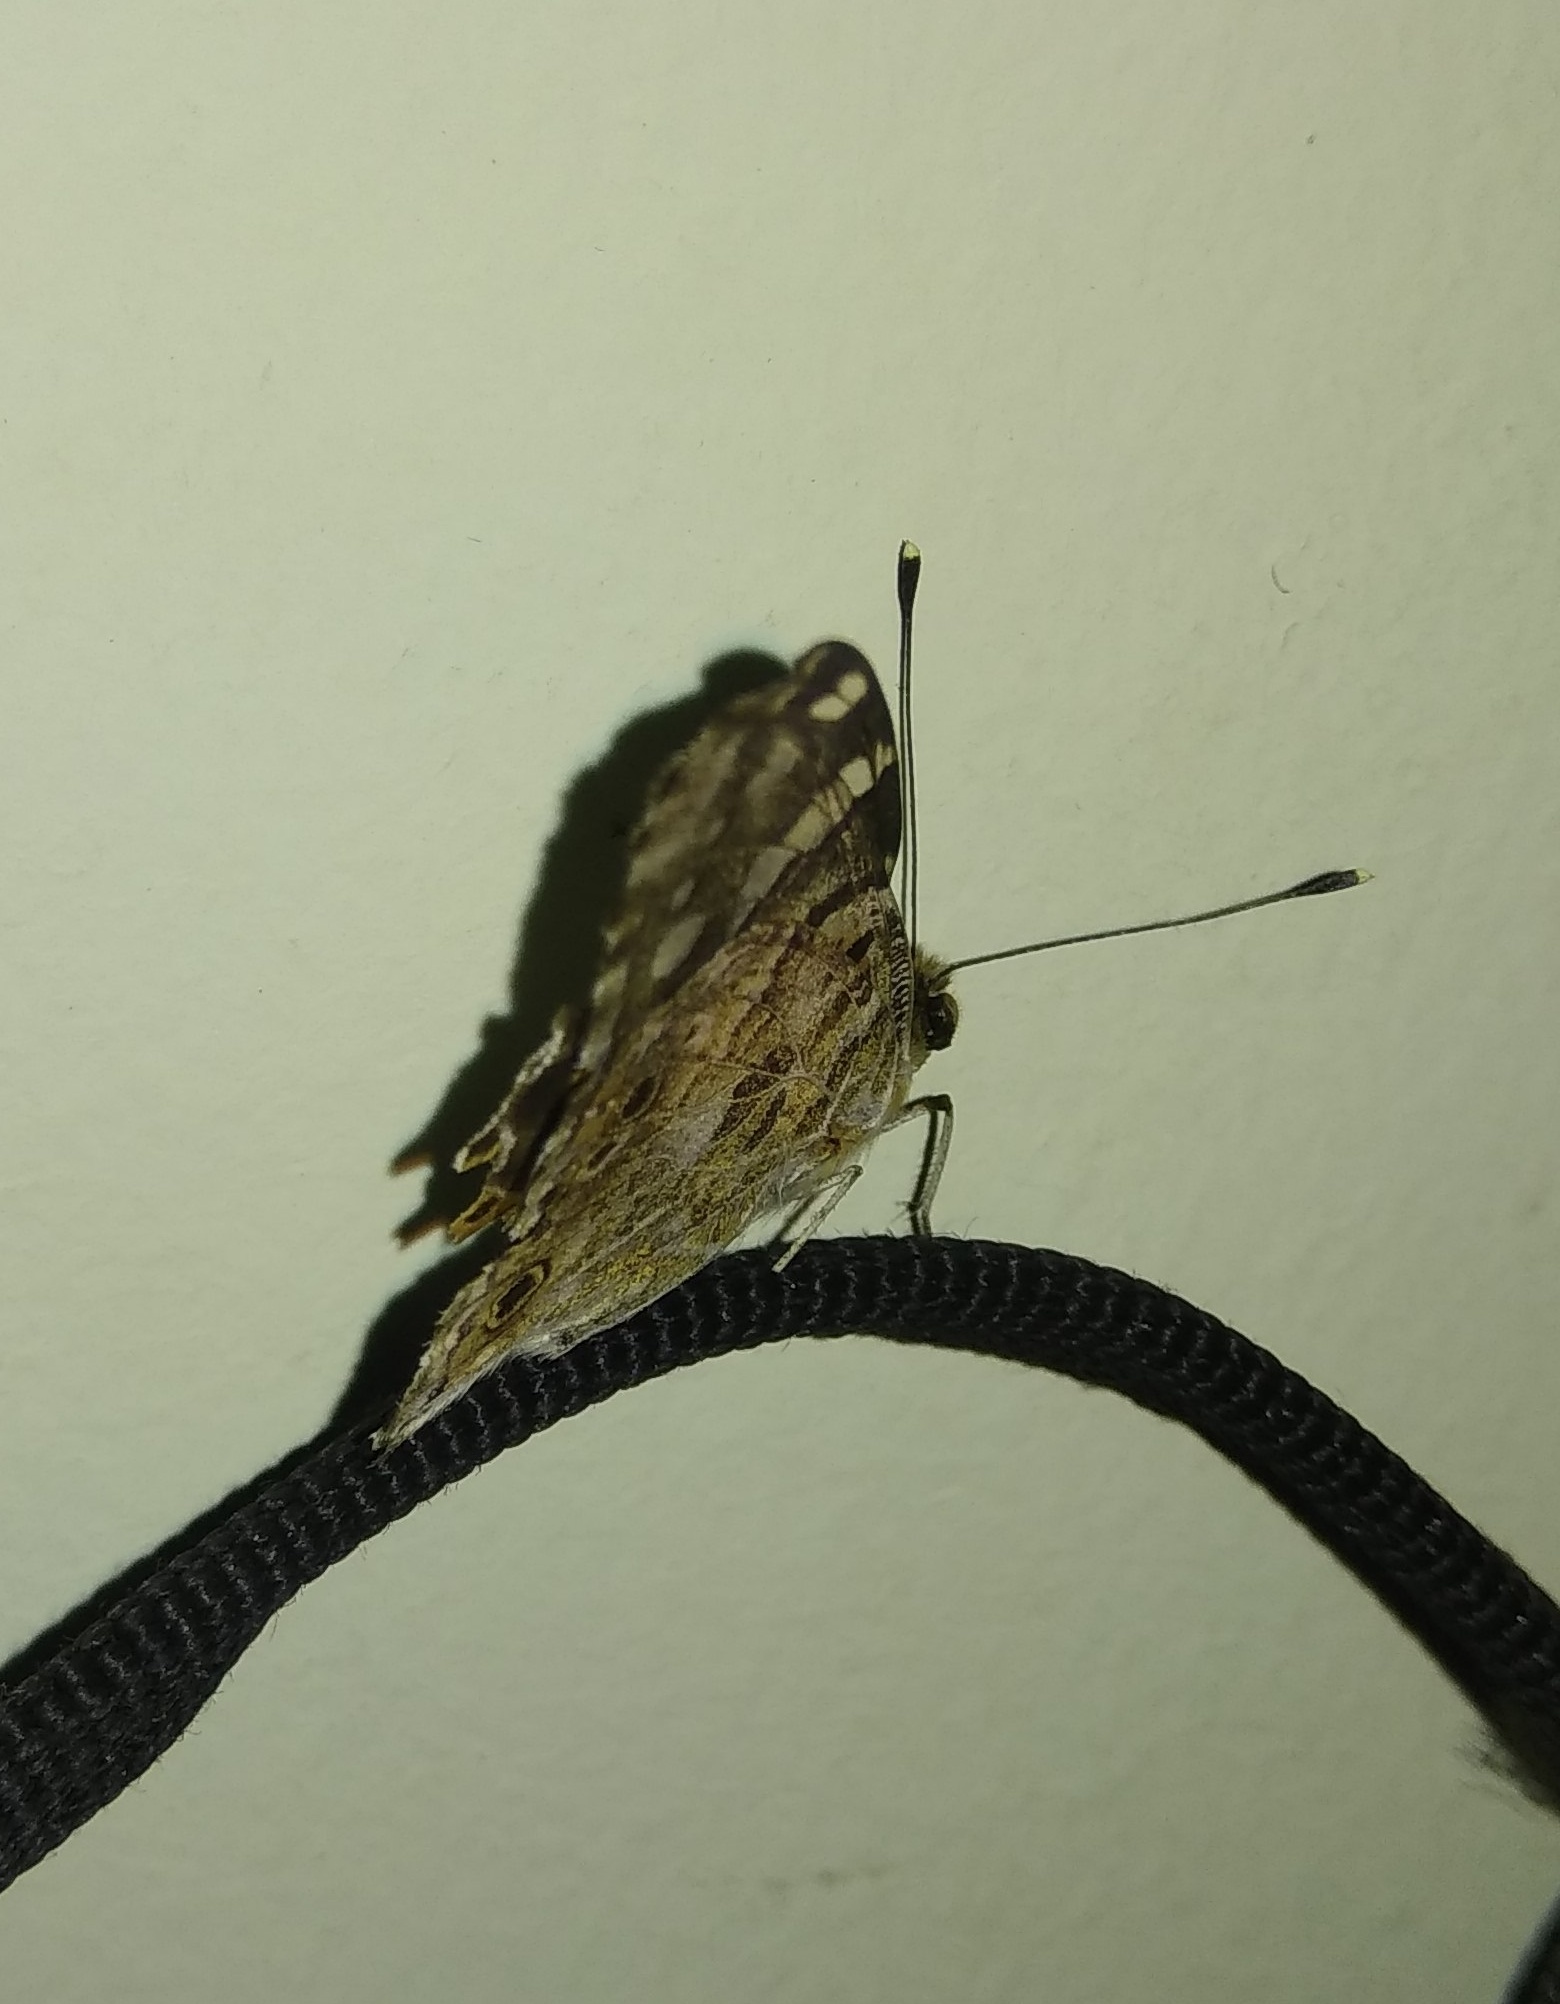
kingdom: Animalia
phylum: Arthropoda
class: Insecta
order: Lepidoptera
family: Nymphalidae
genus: Vanessa
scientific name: Vanessa cardui
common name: Painted lady
